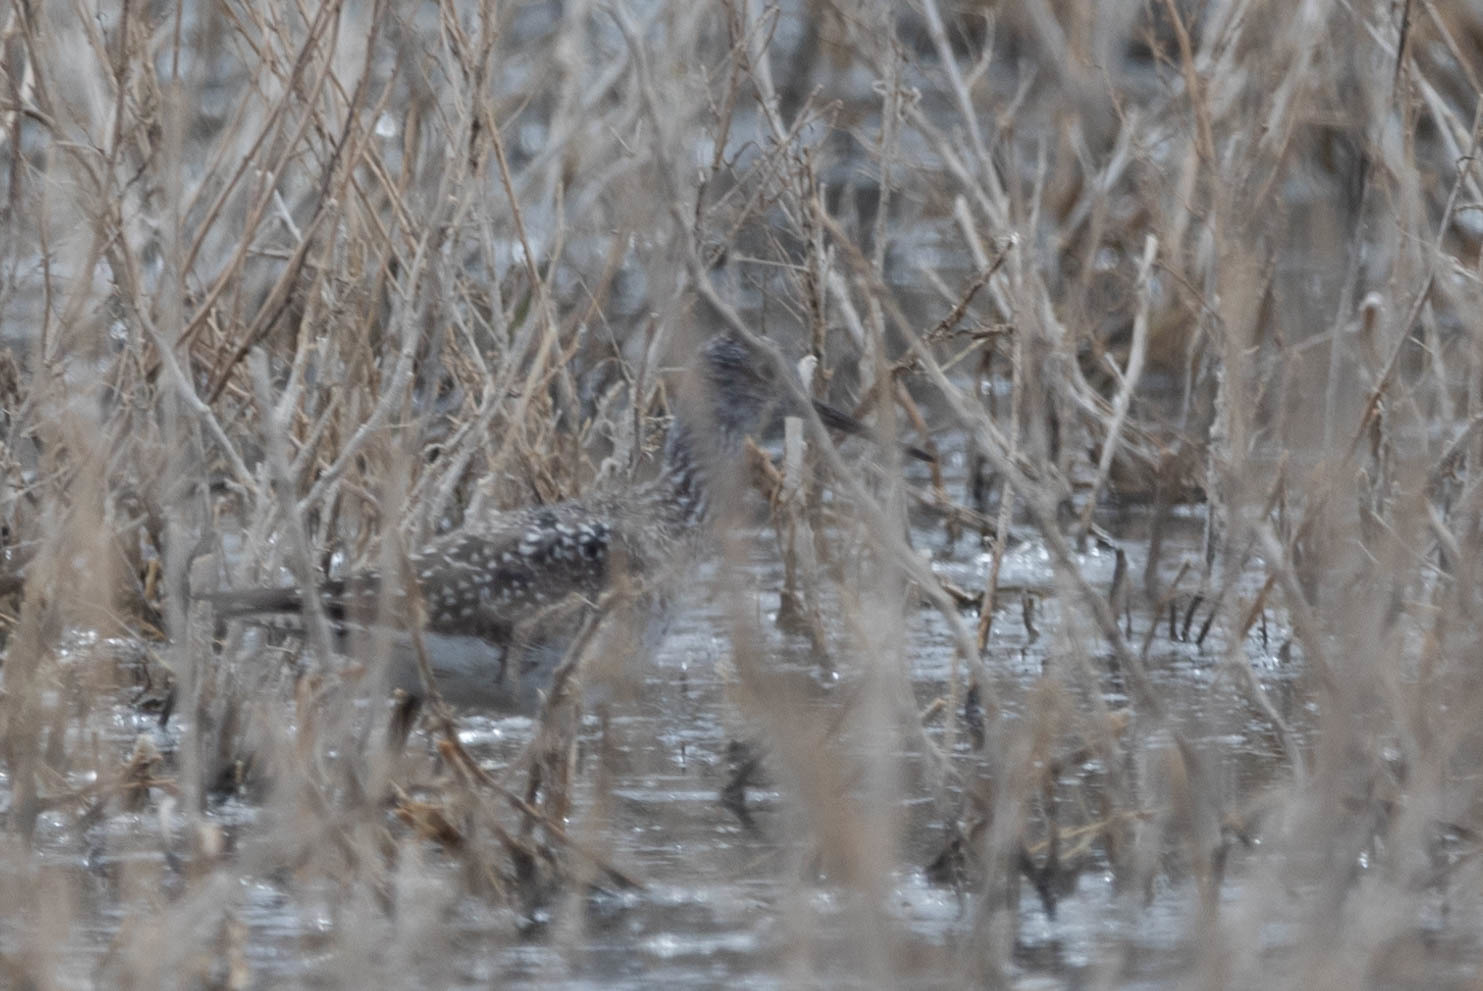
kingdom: Animalia
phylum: Chordata
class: Aves
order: Charadriiformes
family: Scolopacidae
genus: Tringa
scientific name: Tringa melanoleuca
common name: Greater yellowlegs
